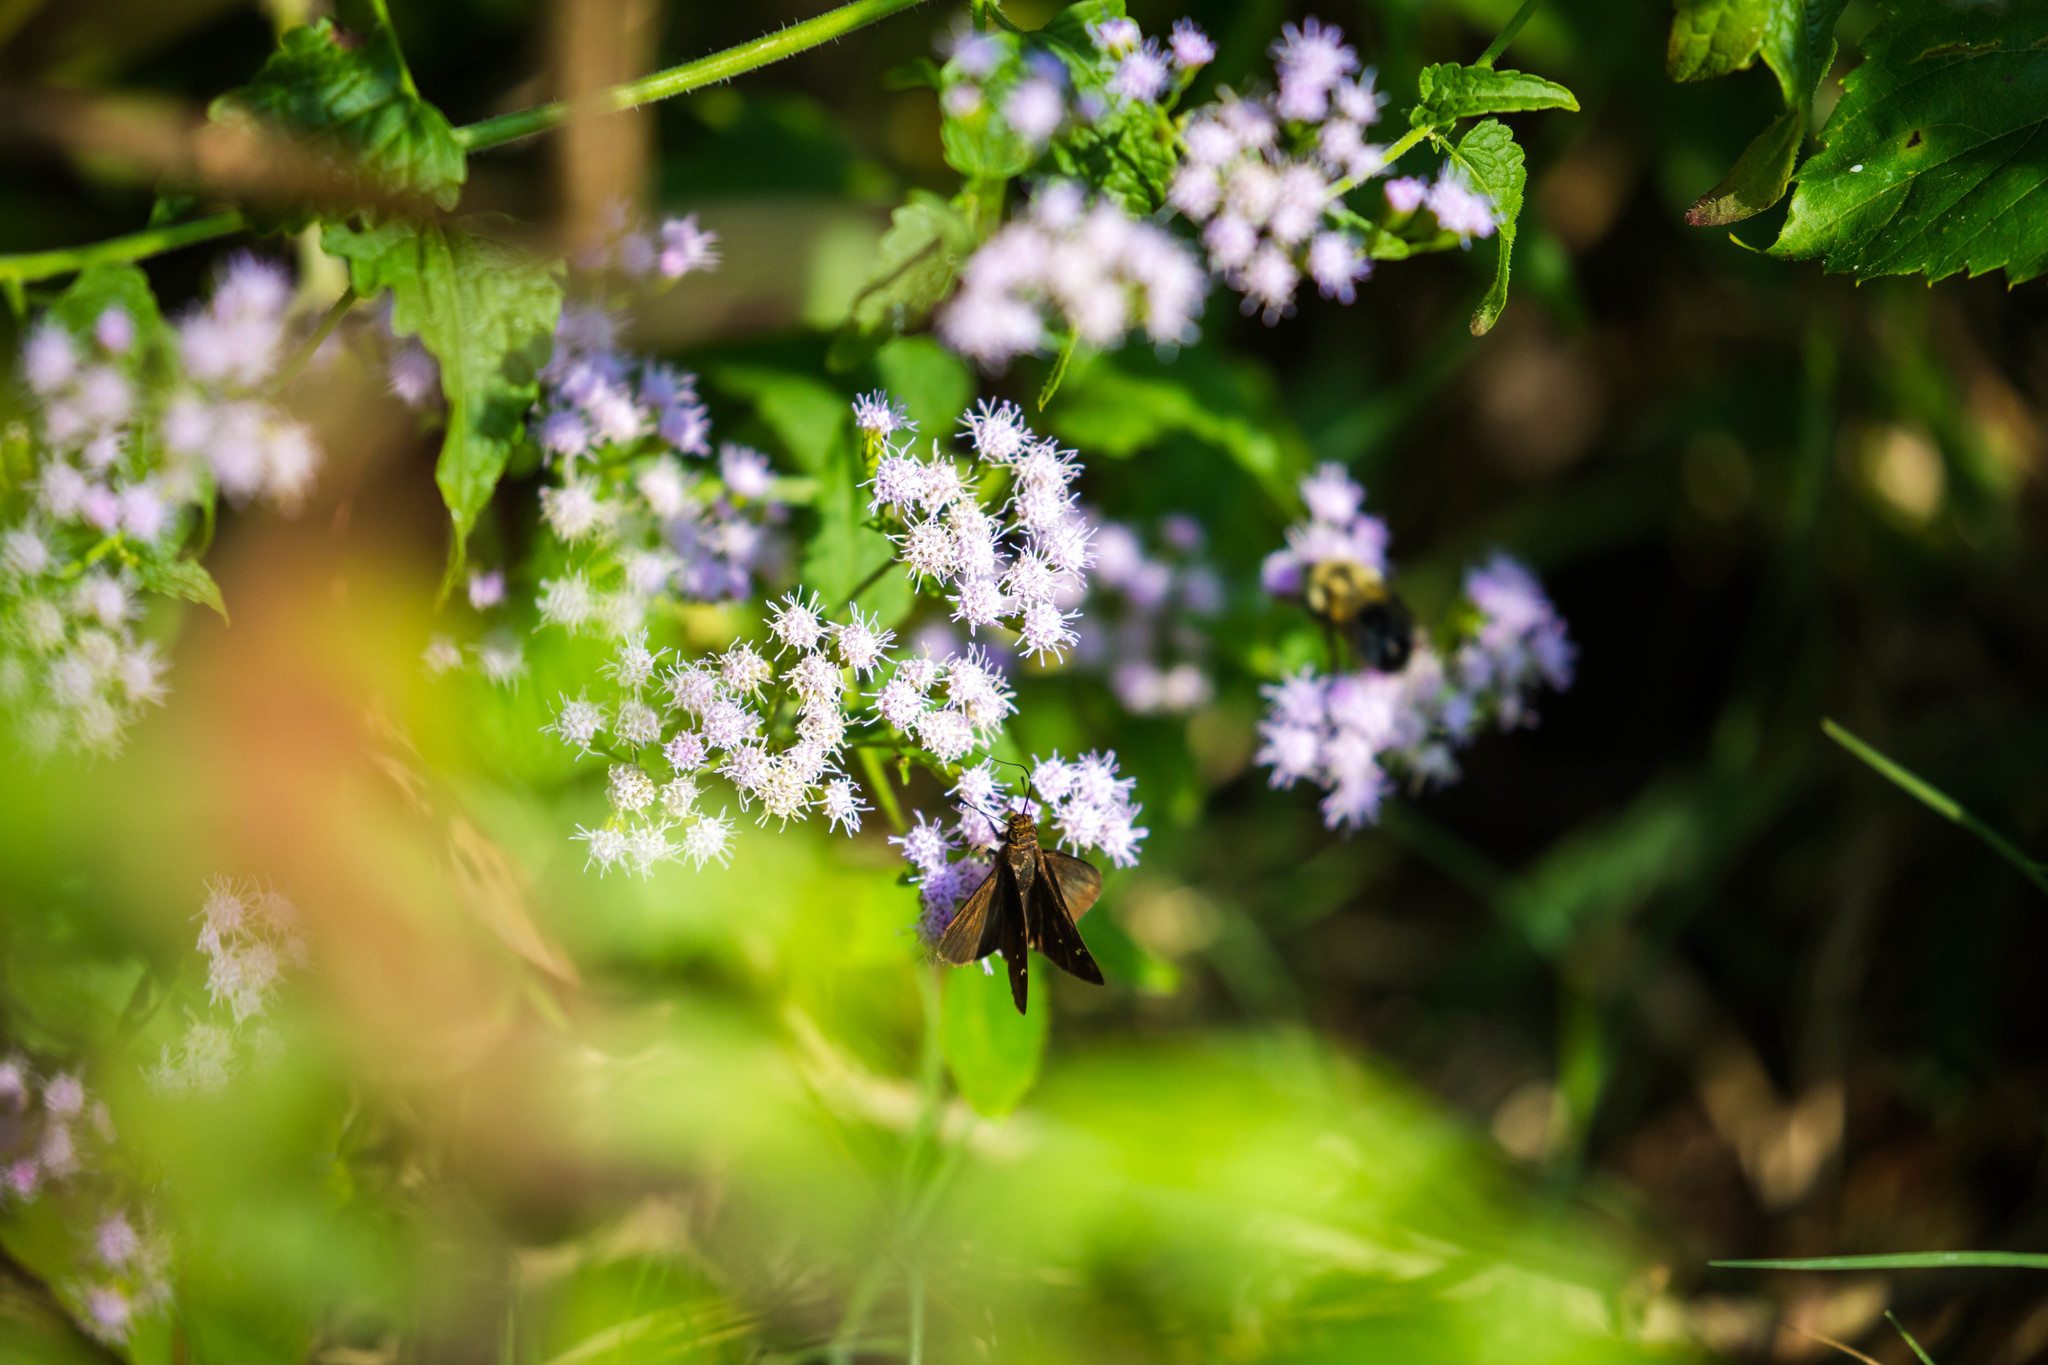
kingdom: Animalia
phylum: Arthropoda
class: Insecta
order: Lepidoptera
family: Hesperiidae
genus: Lerema
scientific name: Lerema accius
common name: Clouded skipper
